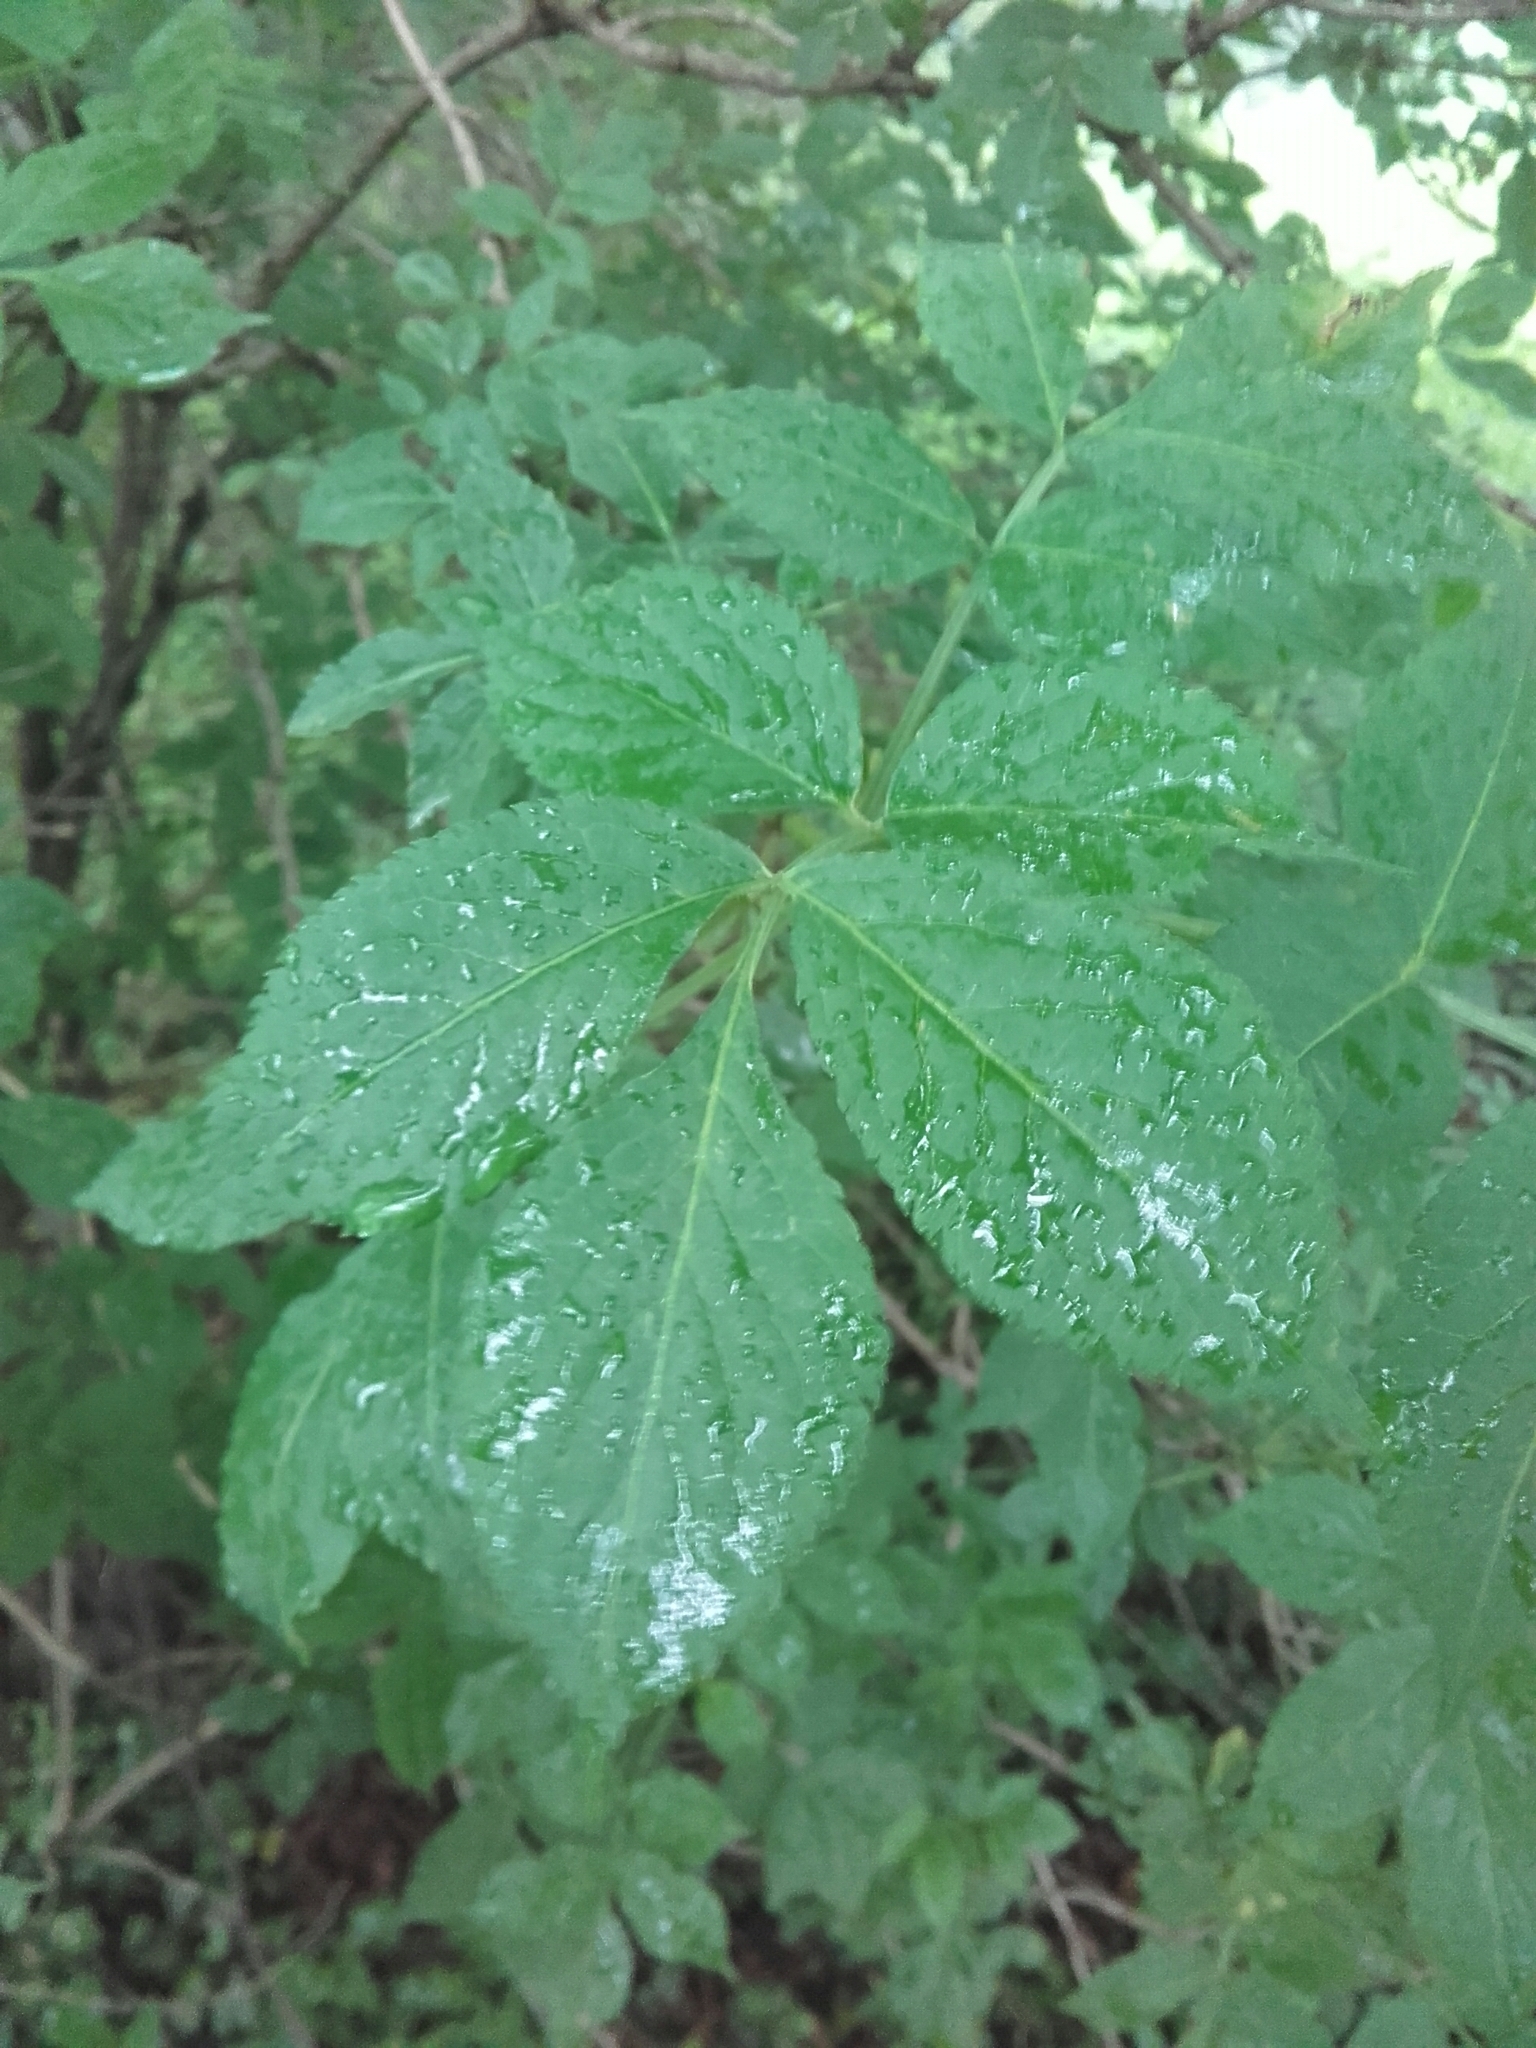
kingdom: Plantae
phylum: Tracheophyta
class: Magnoliopsida
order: Dipsacales
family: Viburnaceae
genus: Sambucus
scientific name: Sambucus nigra
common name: Elder
